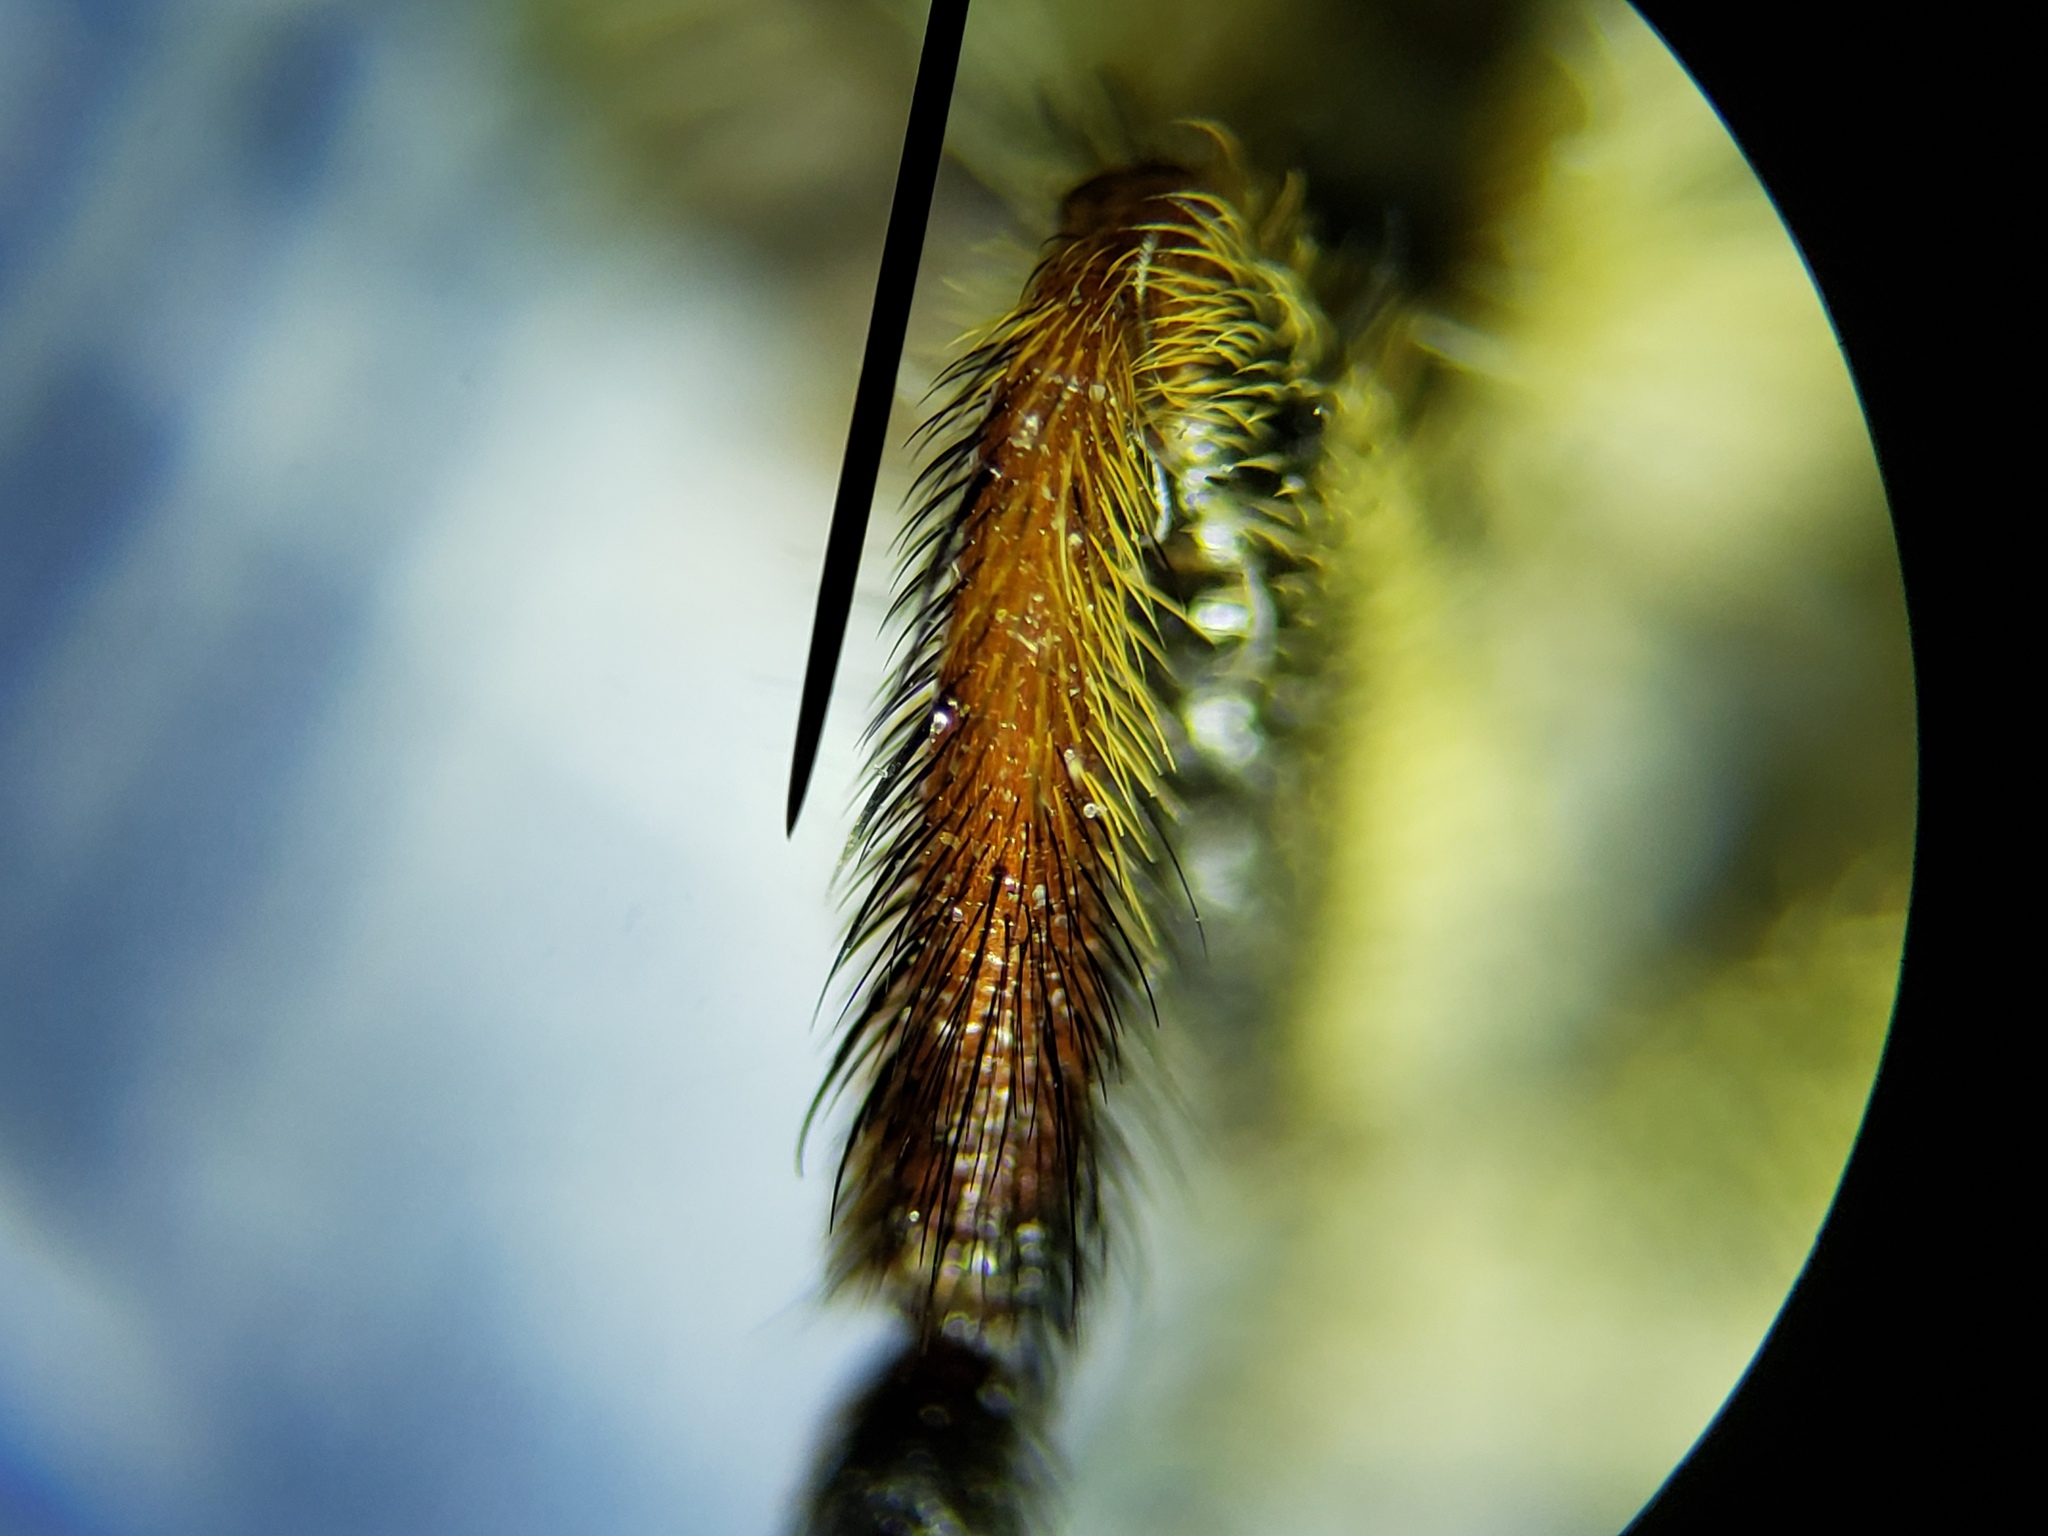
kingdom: Animalia
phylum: Arthropoda
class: Insecta
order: Diptera
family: Asilidae
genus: Megaphorus
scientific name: Megaphorus minutus
